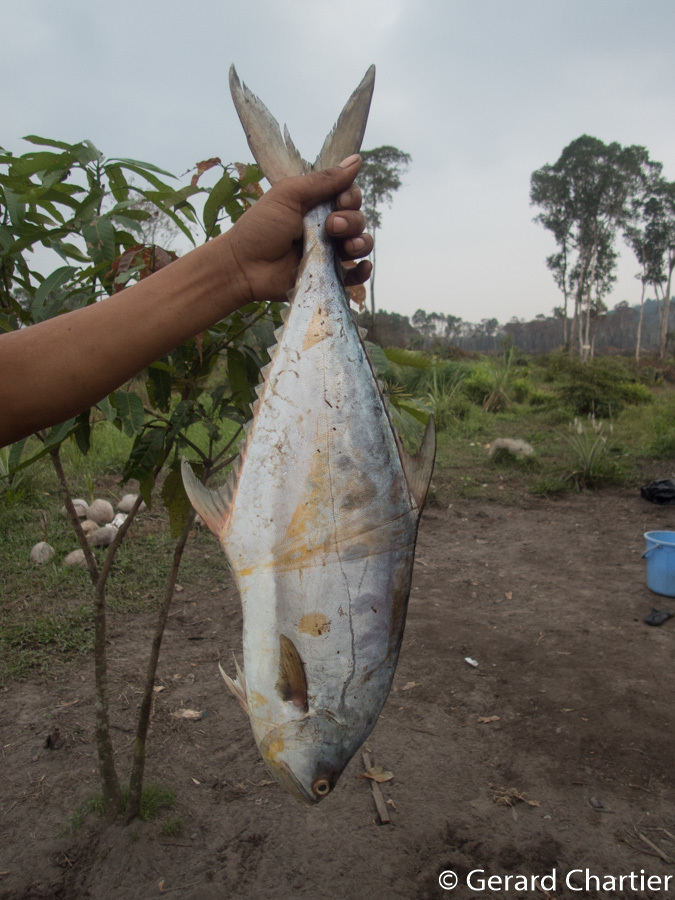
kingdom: Animalia
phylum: Chordata
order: Perciformes
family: Carangidae
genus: Scomberoides
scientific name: Scomberoides commersonnianus
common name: Talang queenfish
